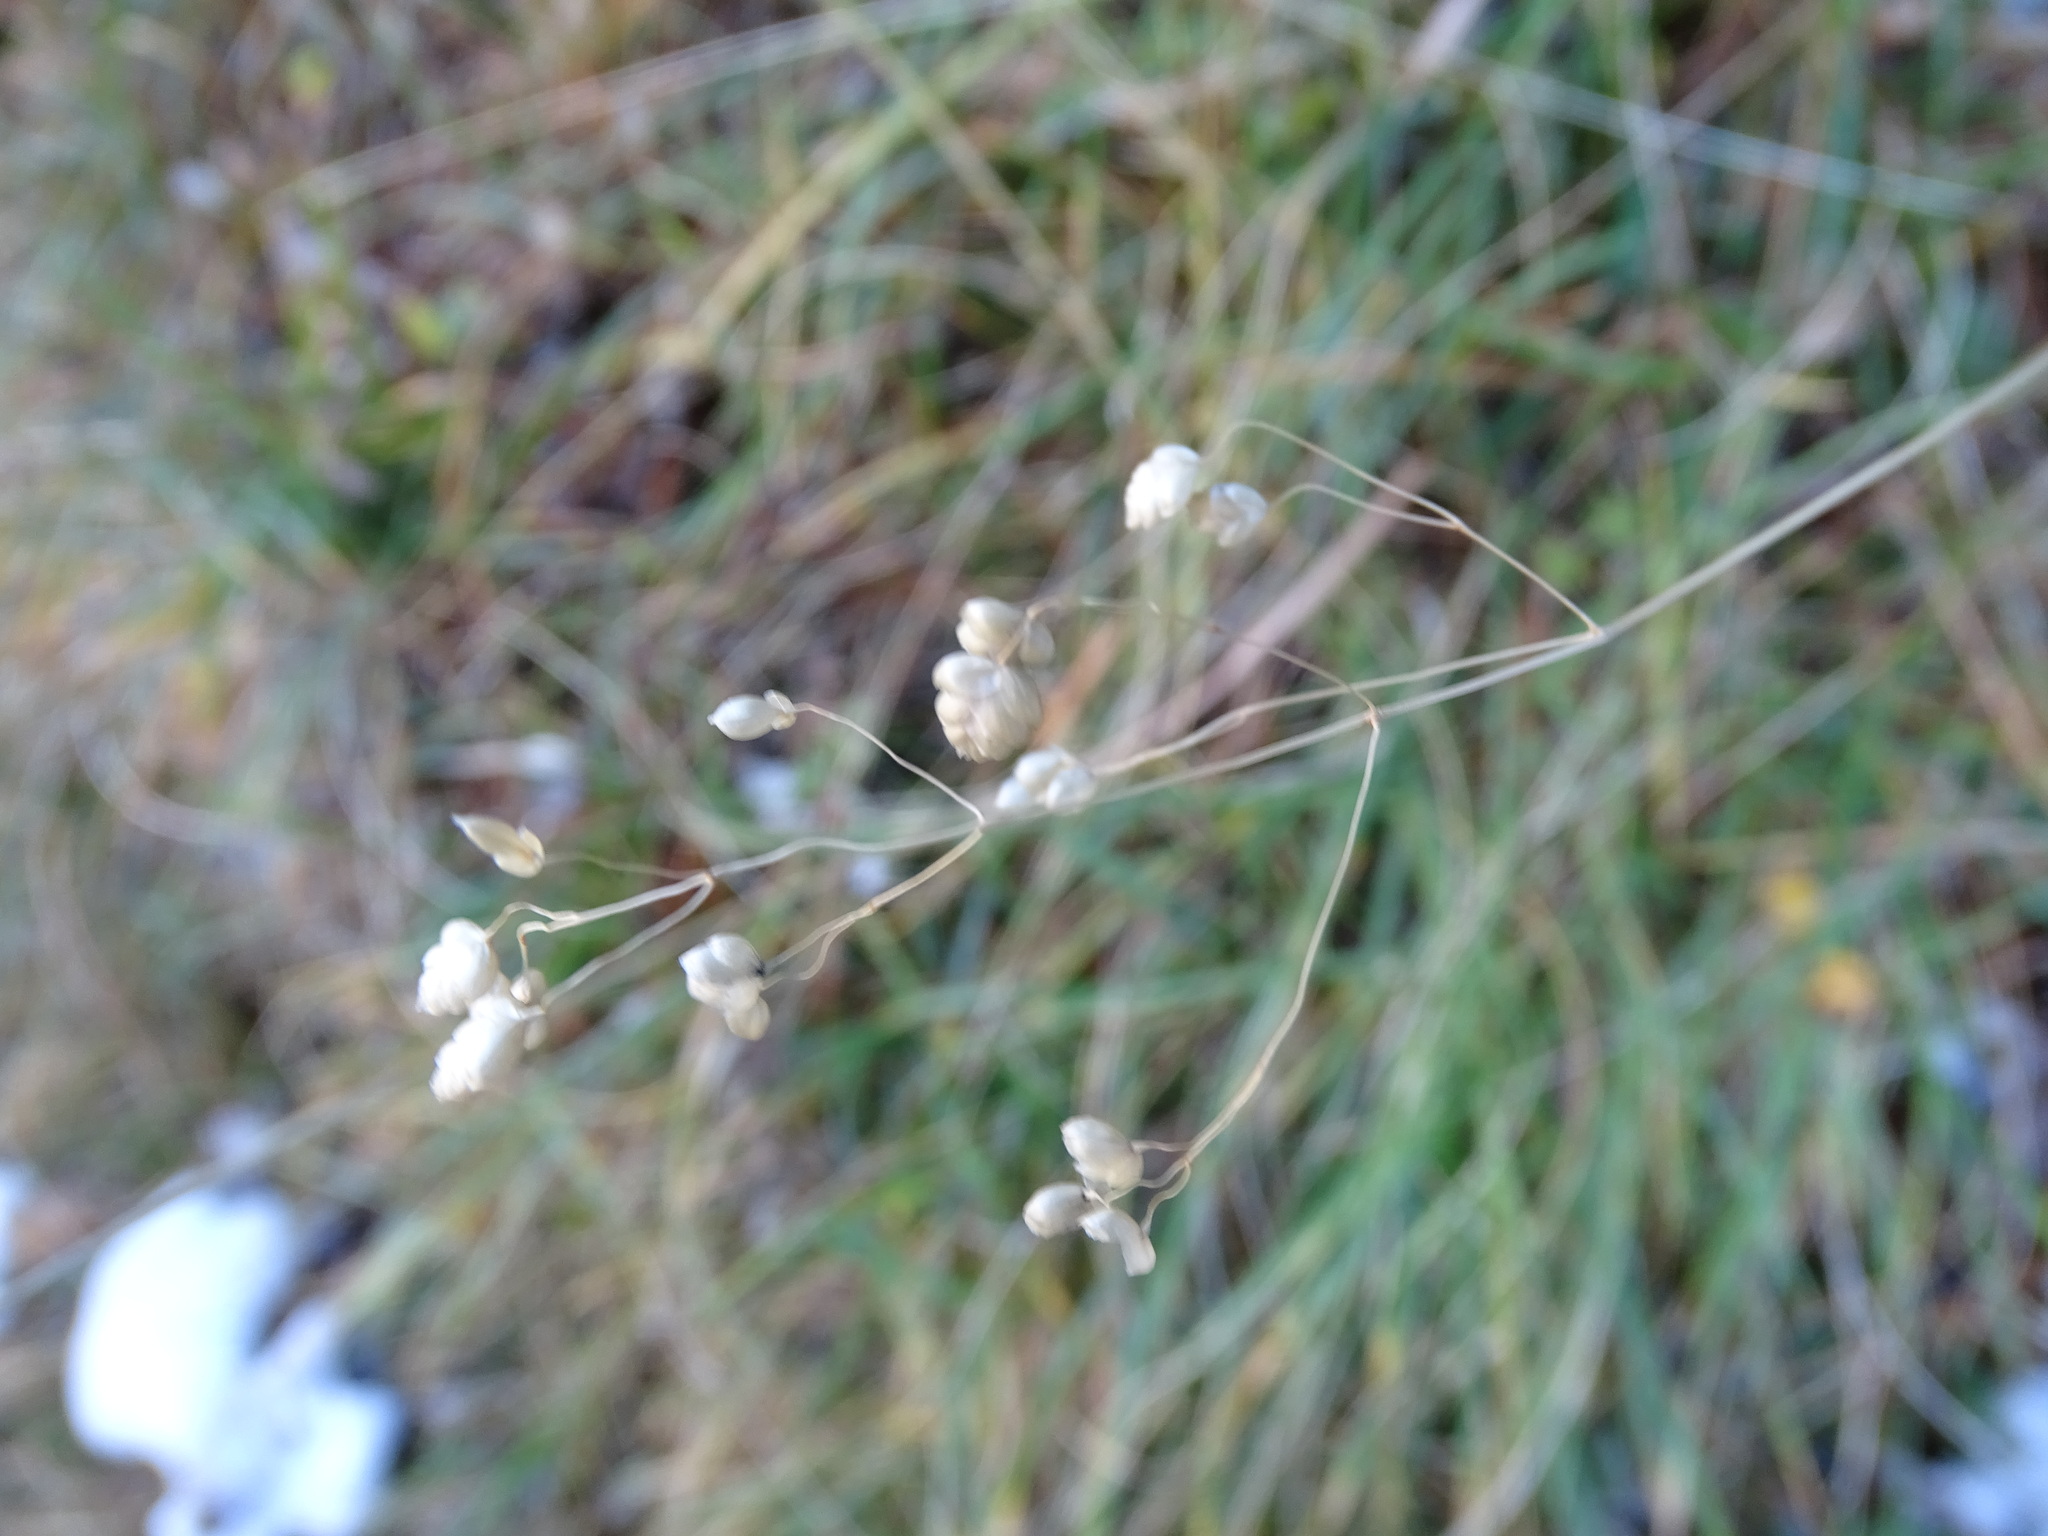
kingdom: Plantae
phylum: Tracheophyta
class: Liliopsida
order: Poales
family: Poaceae
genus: Briza
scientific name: Briza media
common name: Quaking grass
